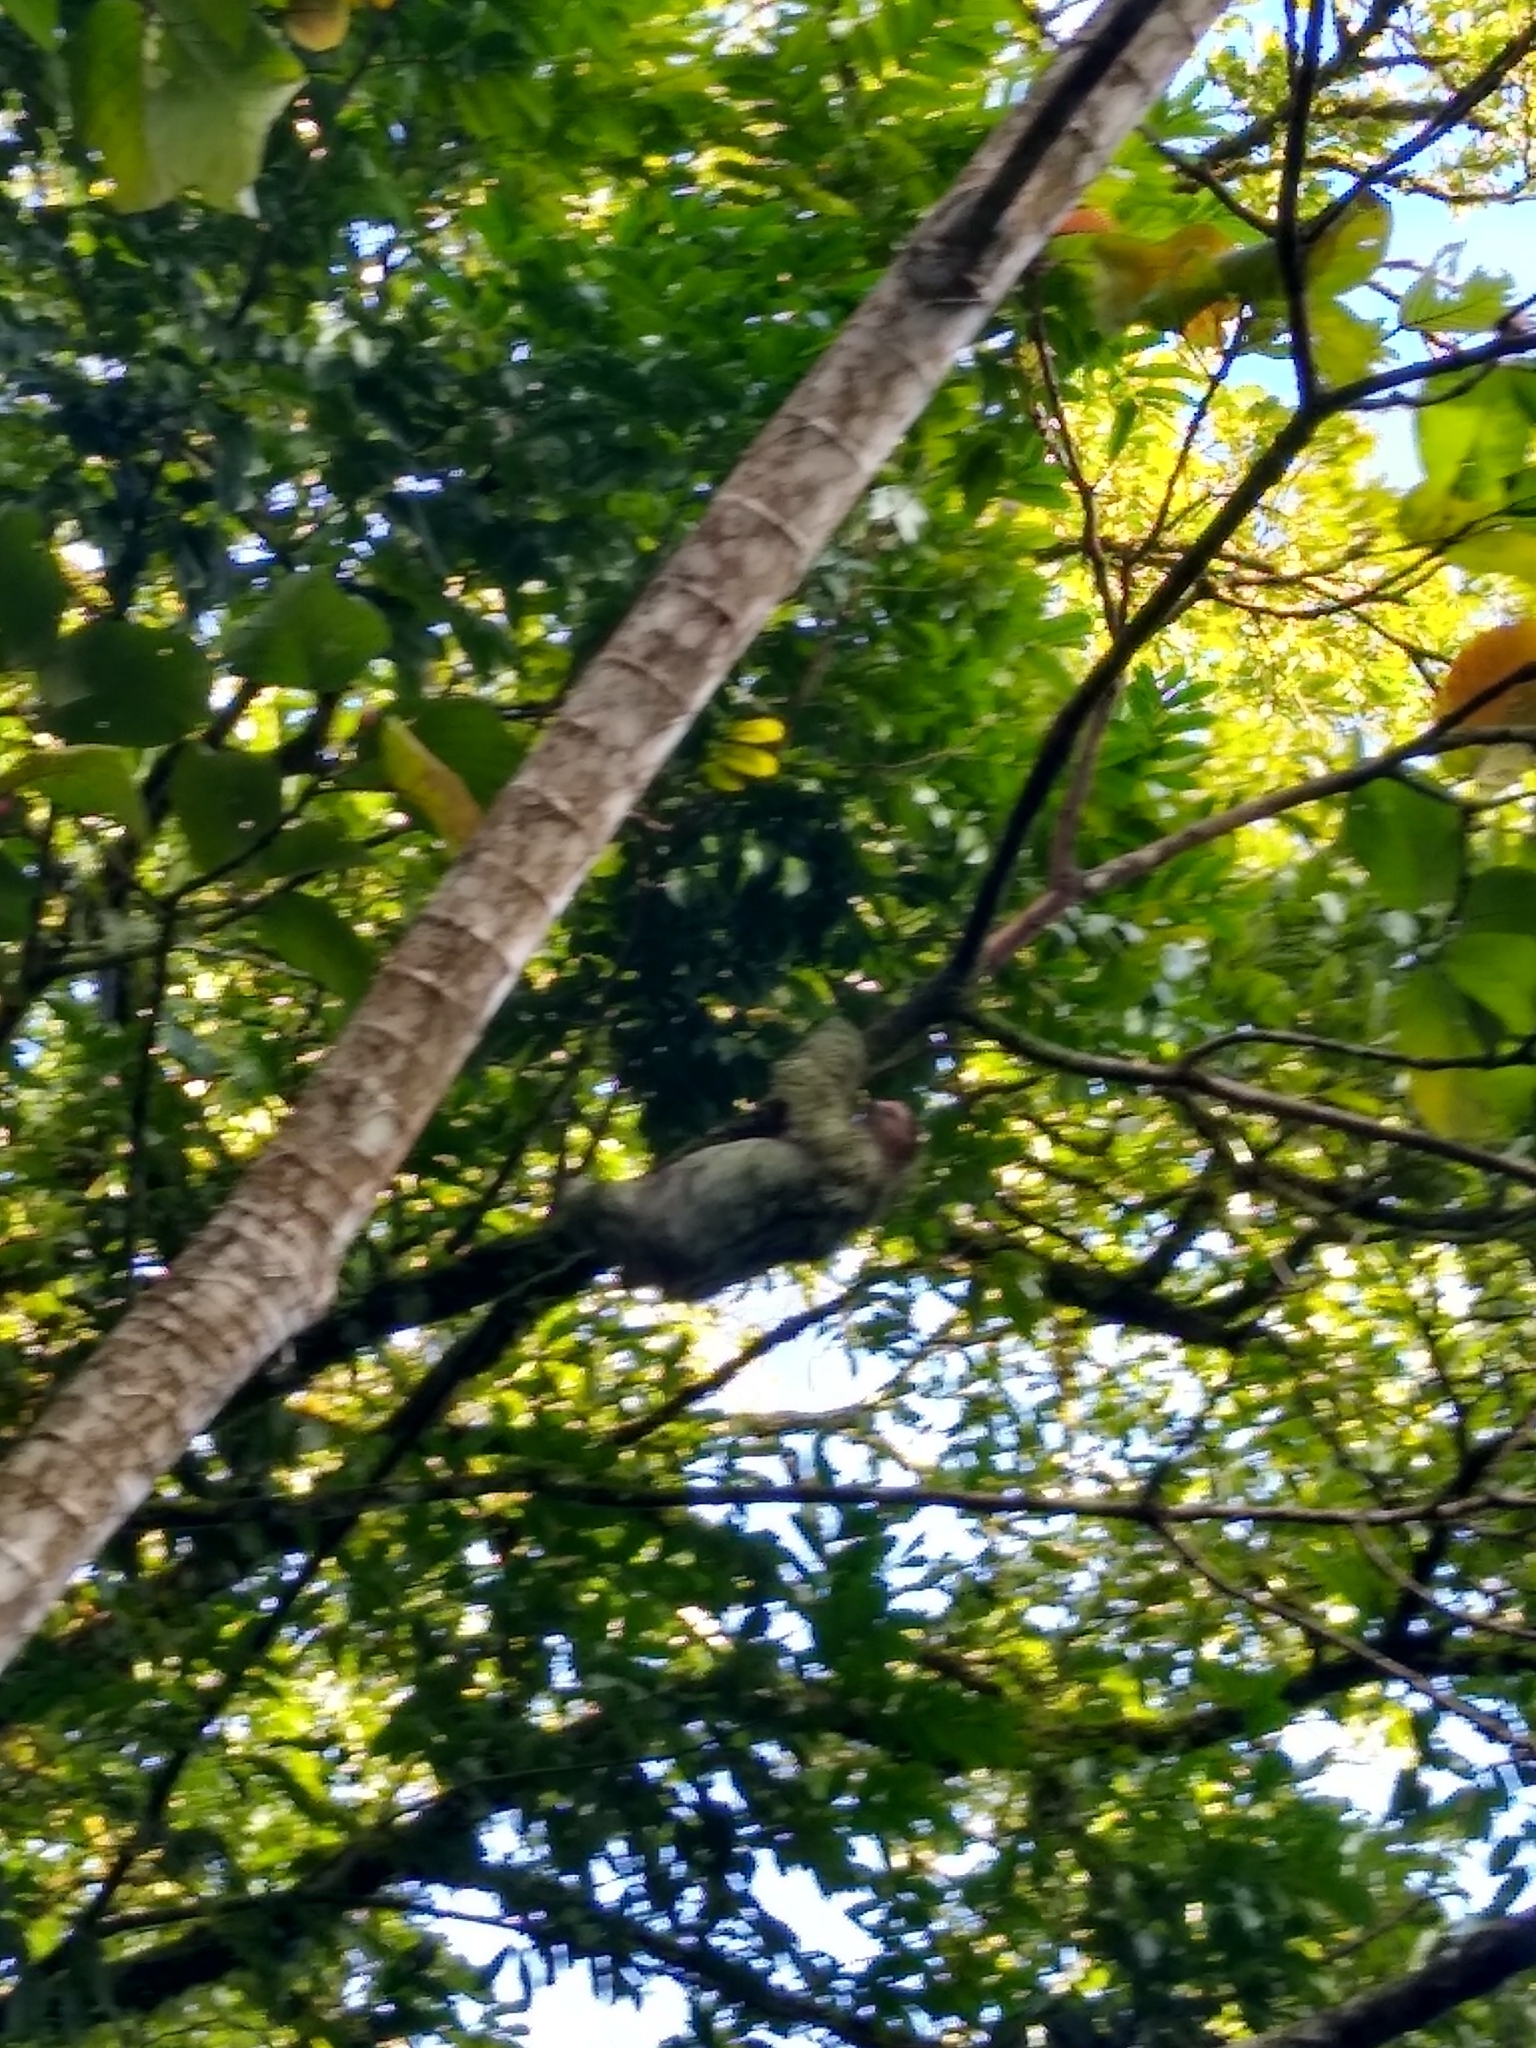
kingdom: Animalia
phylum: Chordata
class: Mammalia
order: Pilosa
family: Bradypodidae
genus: Bradypus
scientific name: Bradypus variegatus
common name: Brown-throated three-toed sloth
